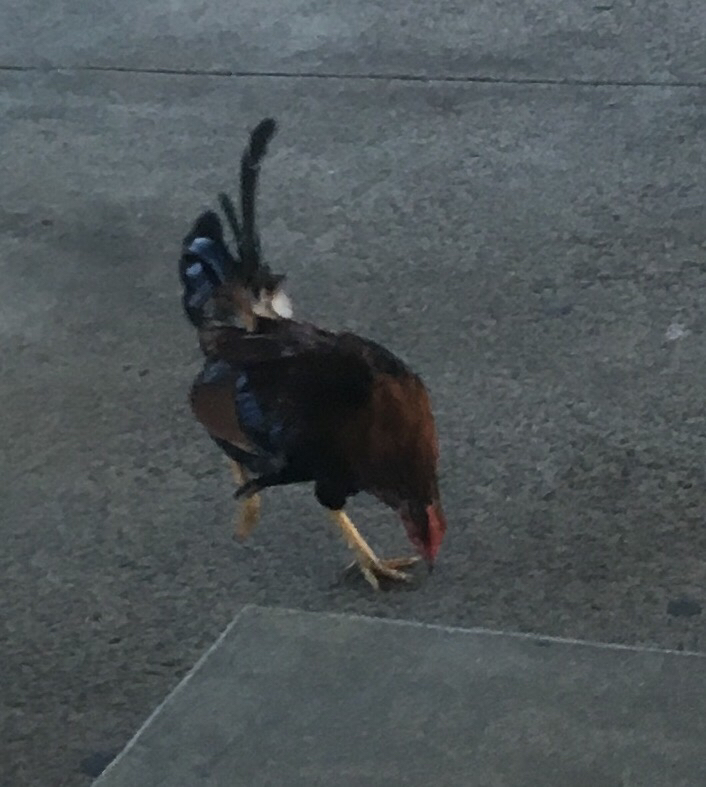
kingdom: Animalia
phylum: Chordata
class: Aves
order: Galliformes
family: Phasianidae
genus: Gallus
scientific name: Gallus gallus
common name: Red junglefowl
